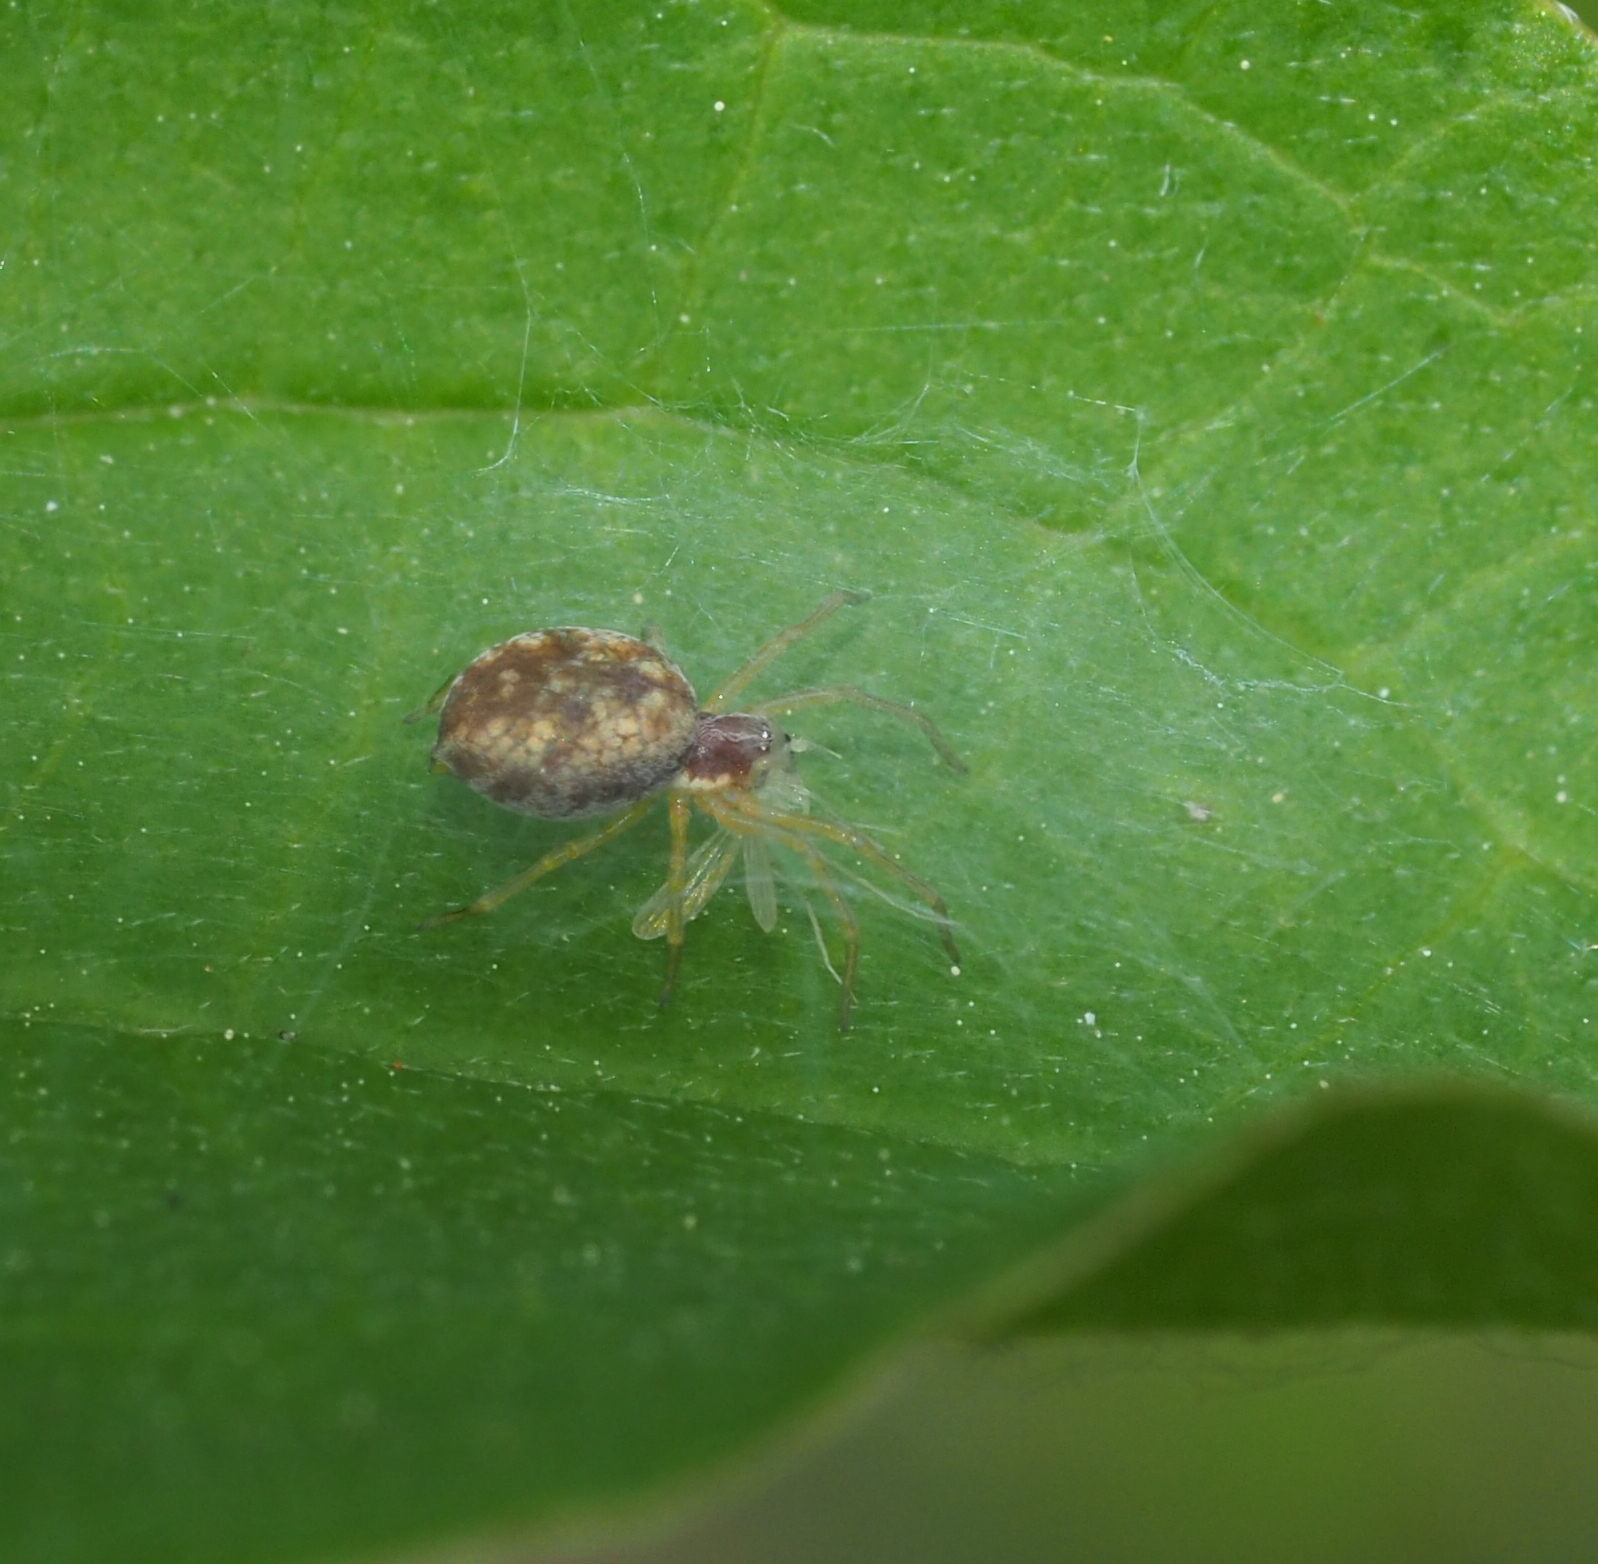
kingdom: Animalia
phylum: Arthropoda
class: Arachnida
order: Araneae
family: Dictynidae
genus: Nigma
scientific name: Nigma flavescens
